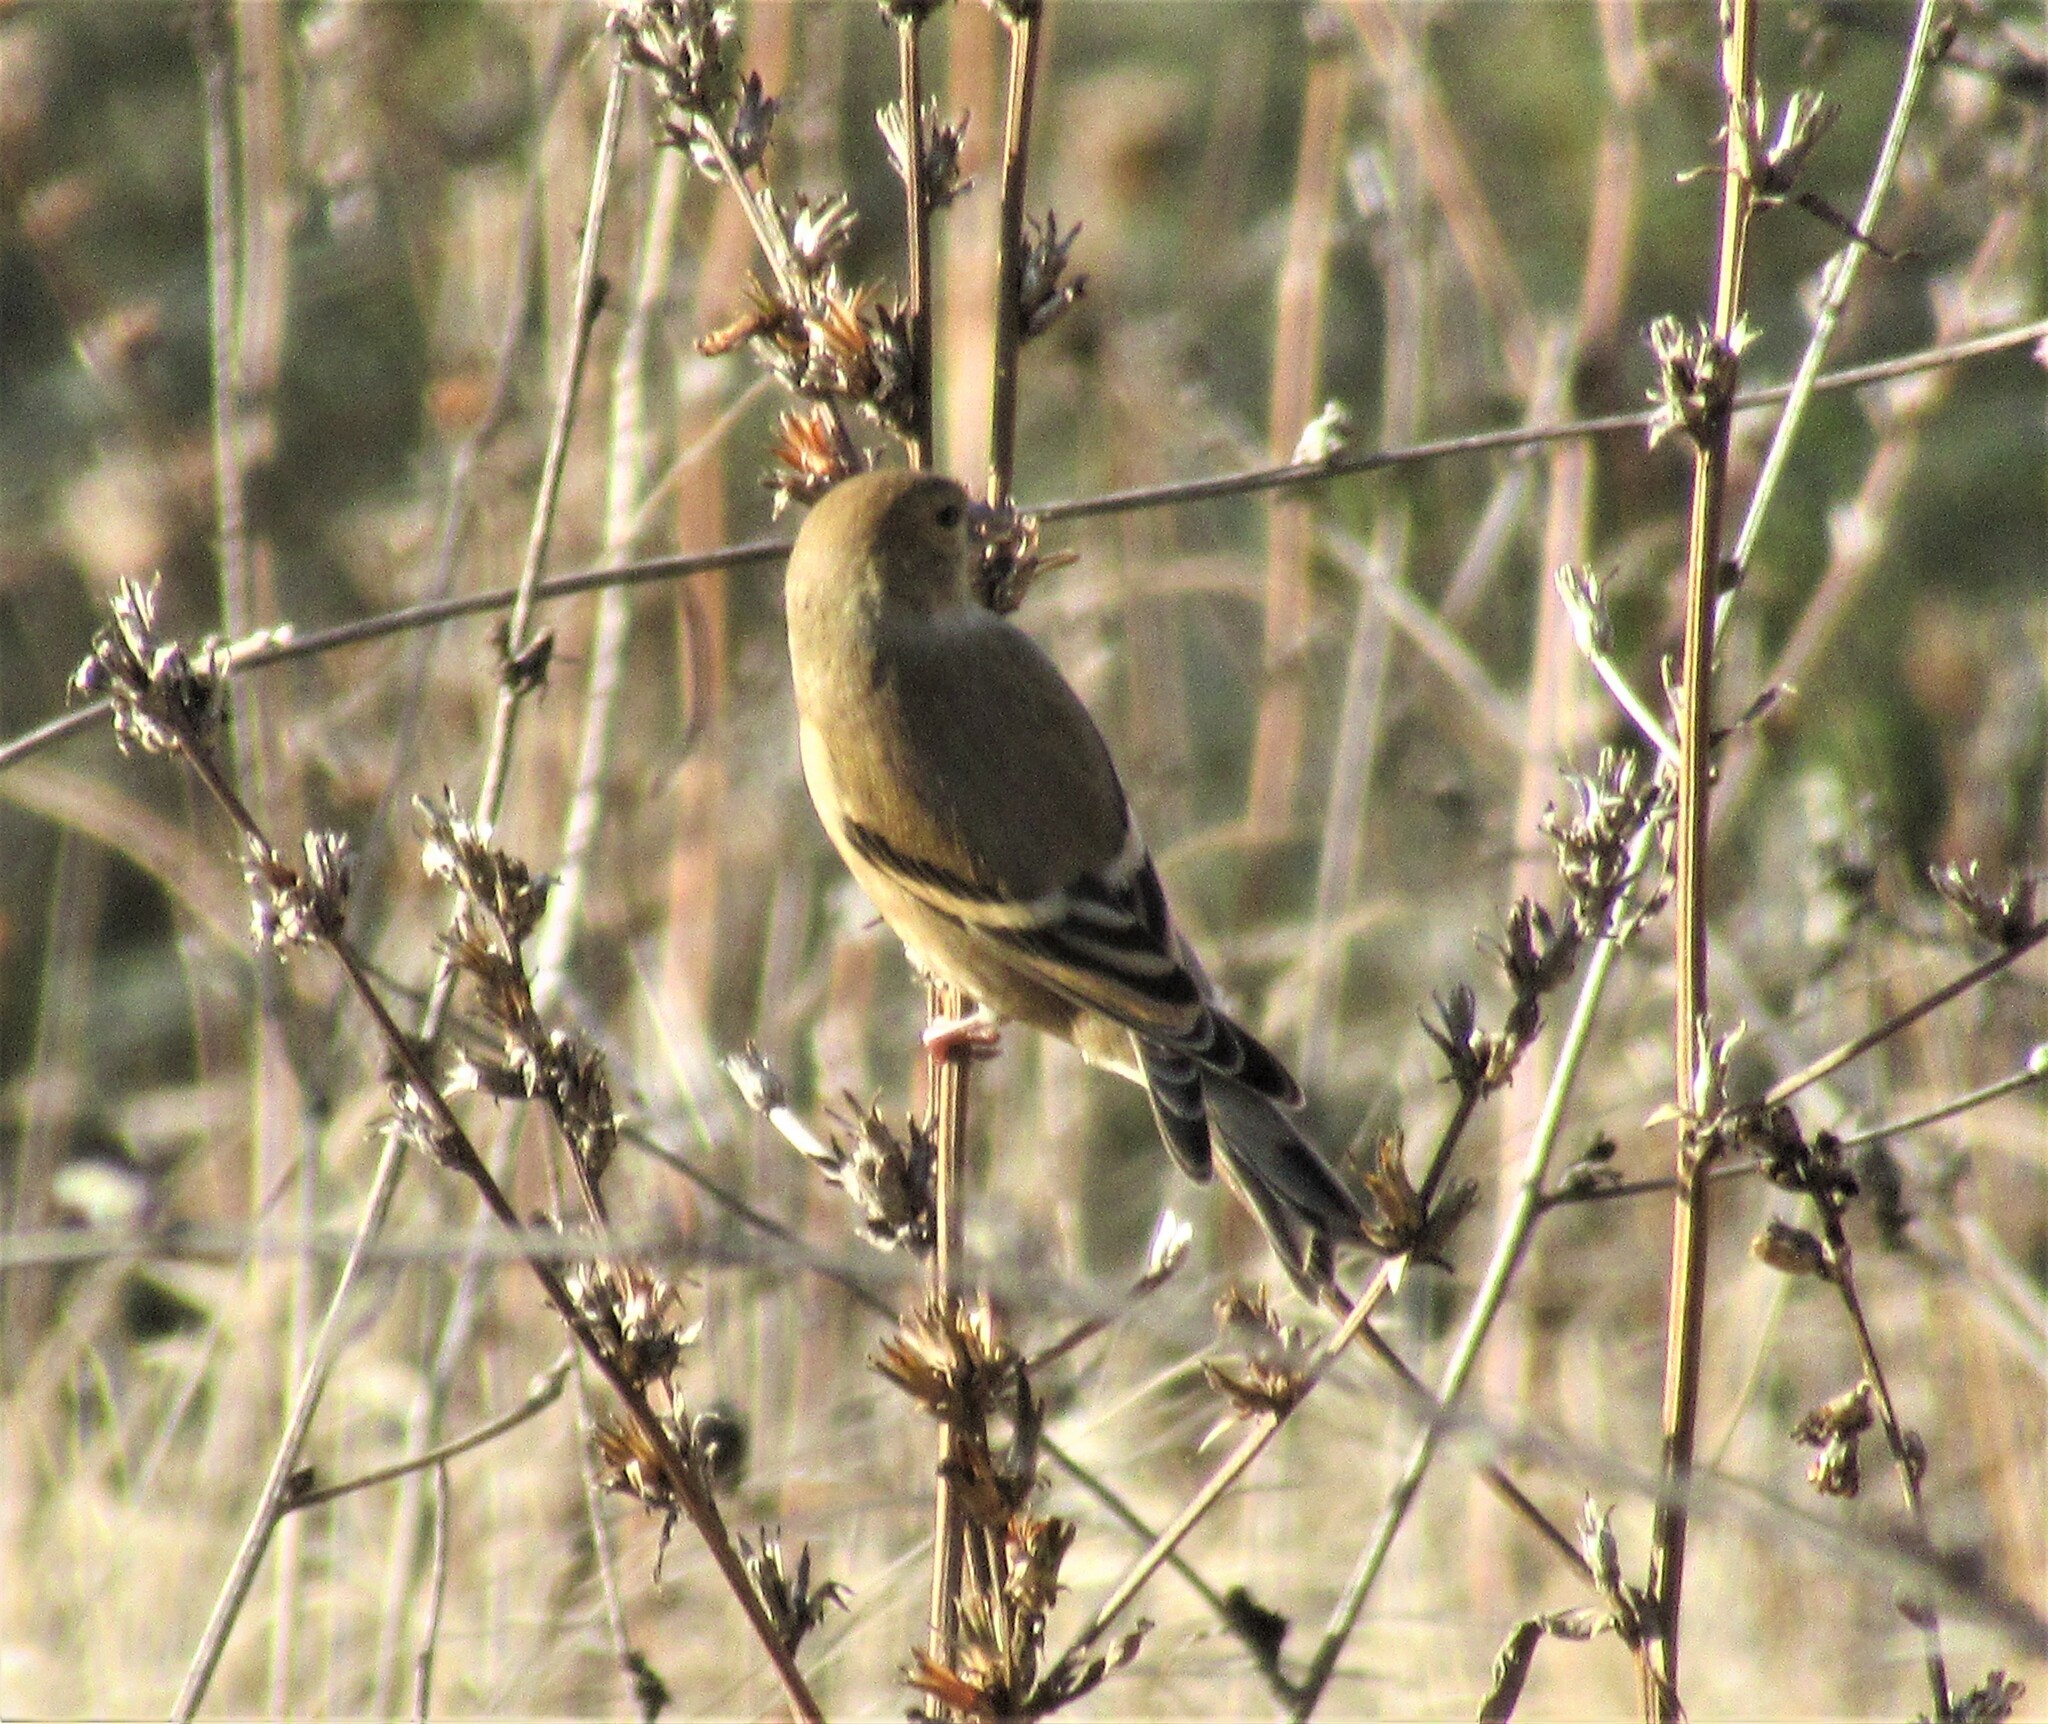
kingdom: Animalia
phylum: Chordata
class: Aves
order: Passeriformes
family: Fringillidae
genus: Spinus
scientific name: Spinus tristis
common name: American goldfinch
